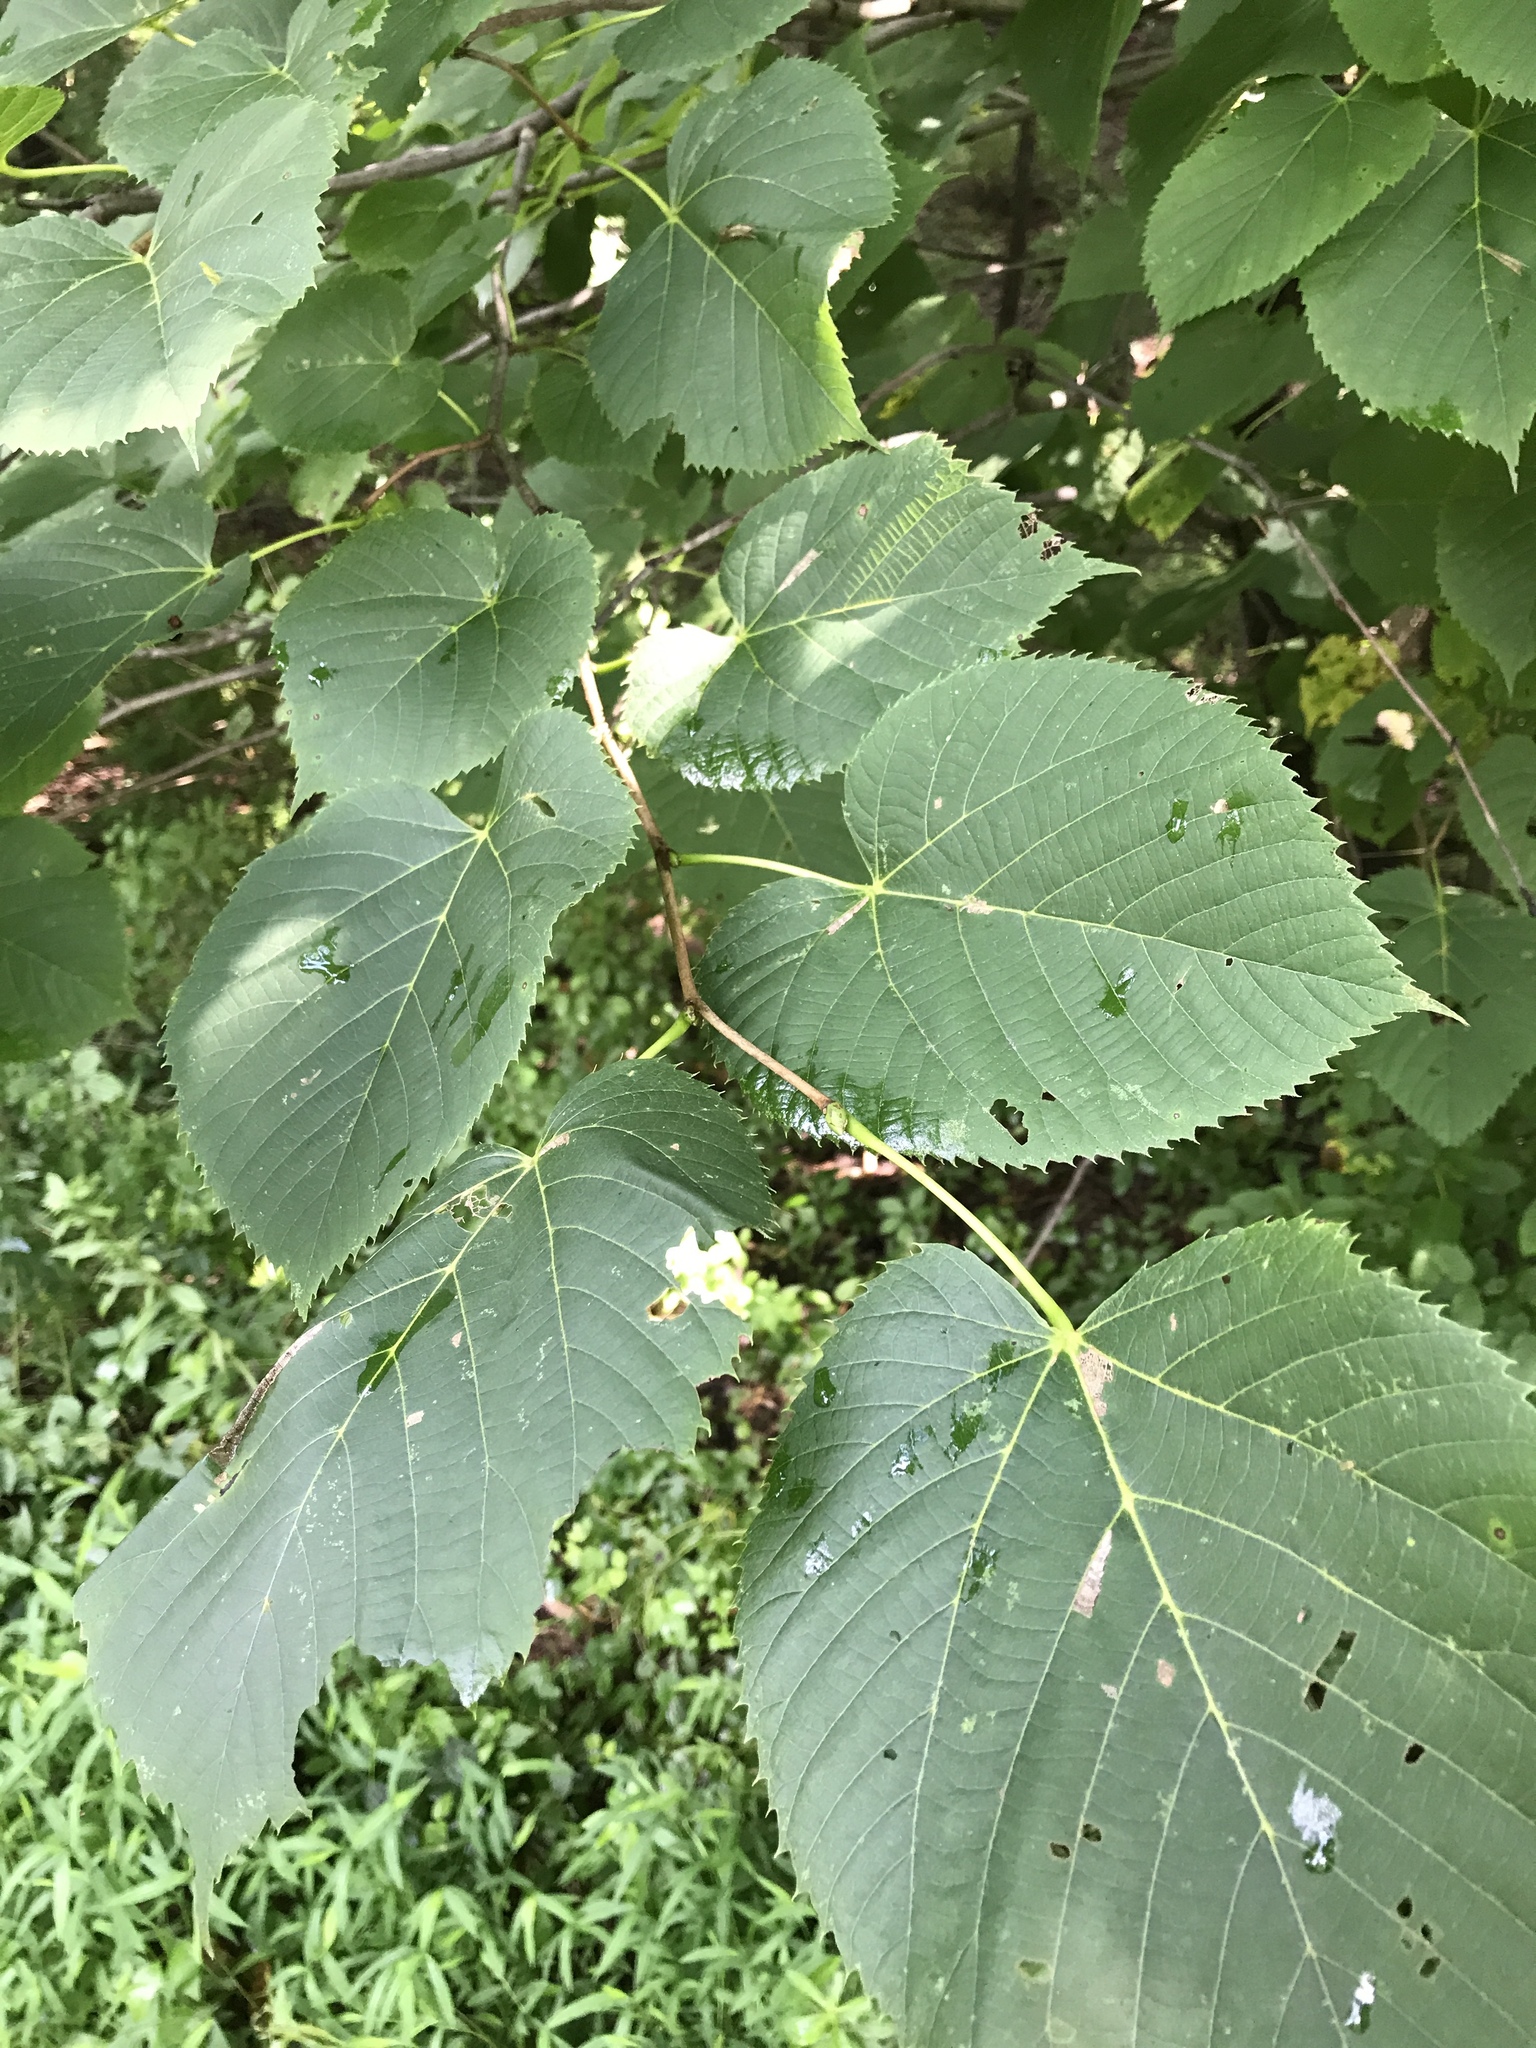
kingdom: Plantae
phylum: Tracheophyta
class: Magnoliopsida
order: Malvales
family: Malvaceae
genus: Tilia
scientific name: Tilia americana
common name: Basswood
